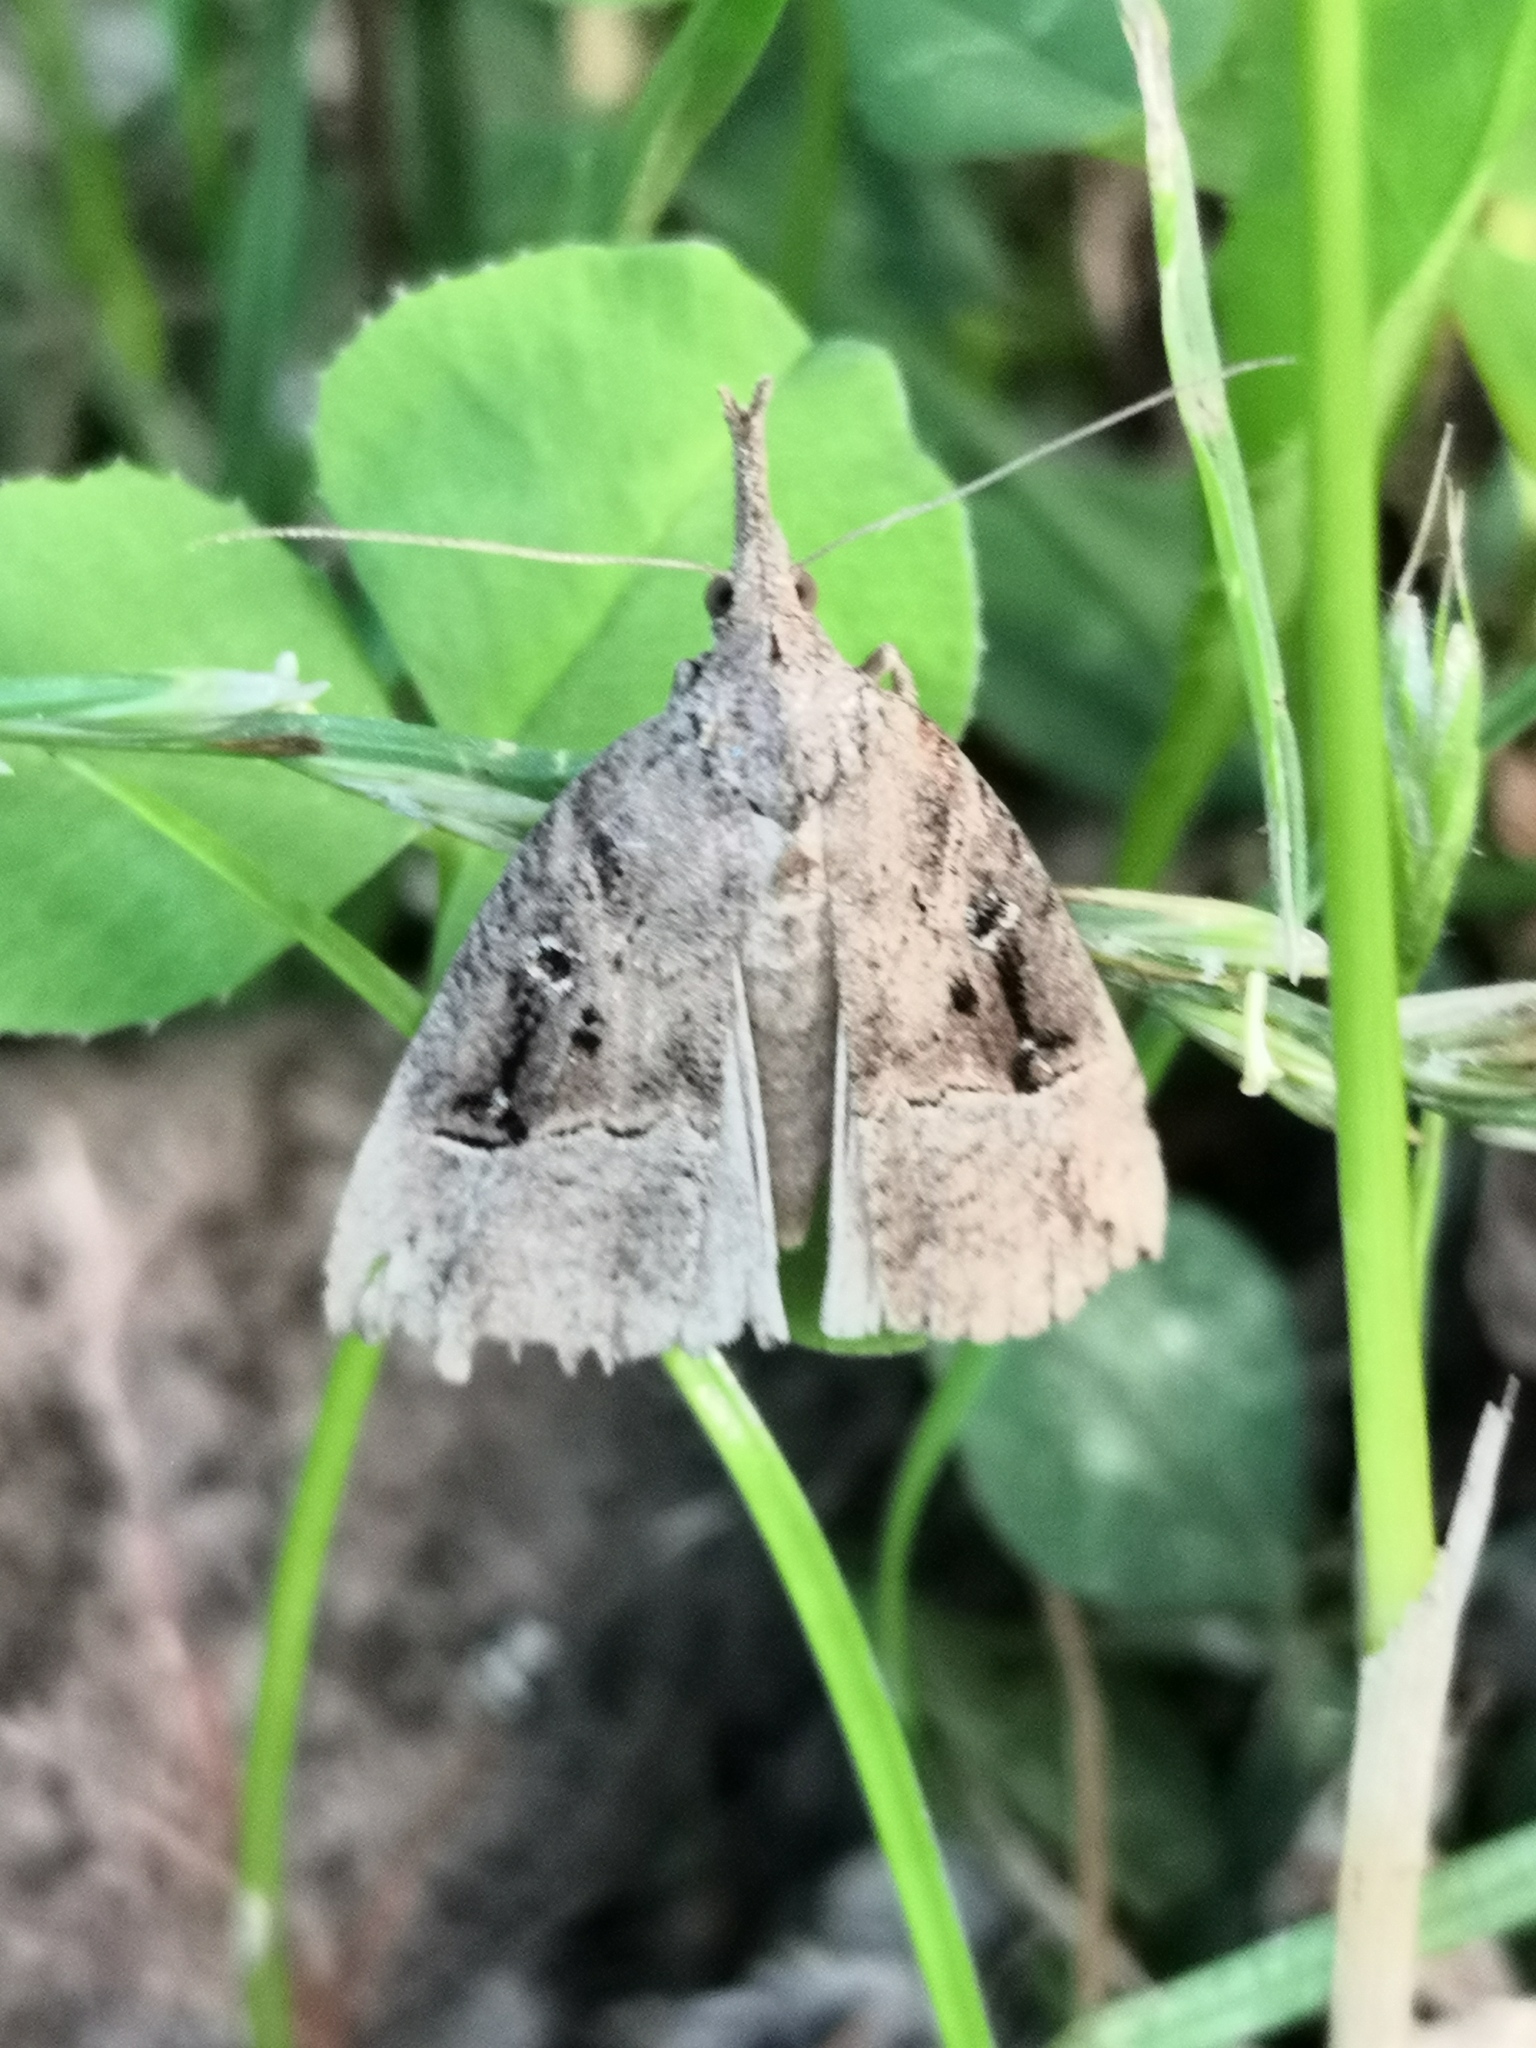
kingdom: Animalia
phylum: Arthropoda
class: Insecta
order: Lepidoptera
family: Erebidae
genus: Hypena
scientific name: Hypena rostralis
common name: Buttoned snout
